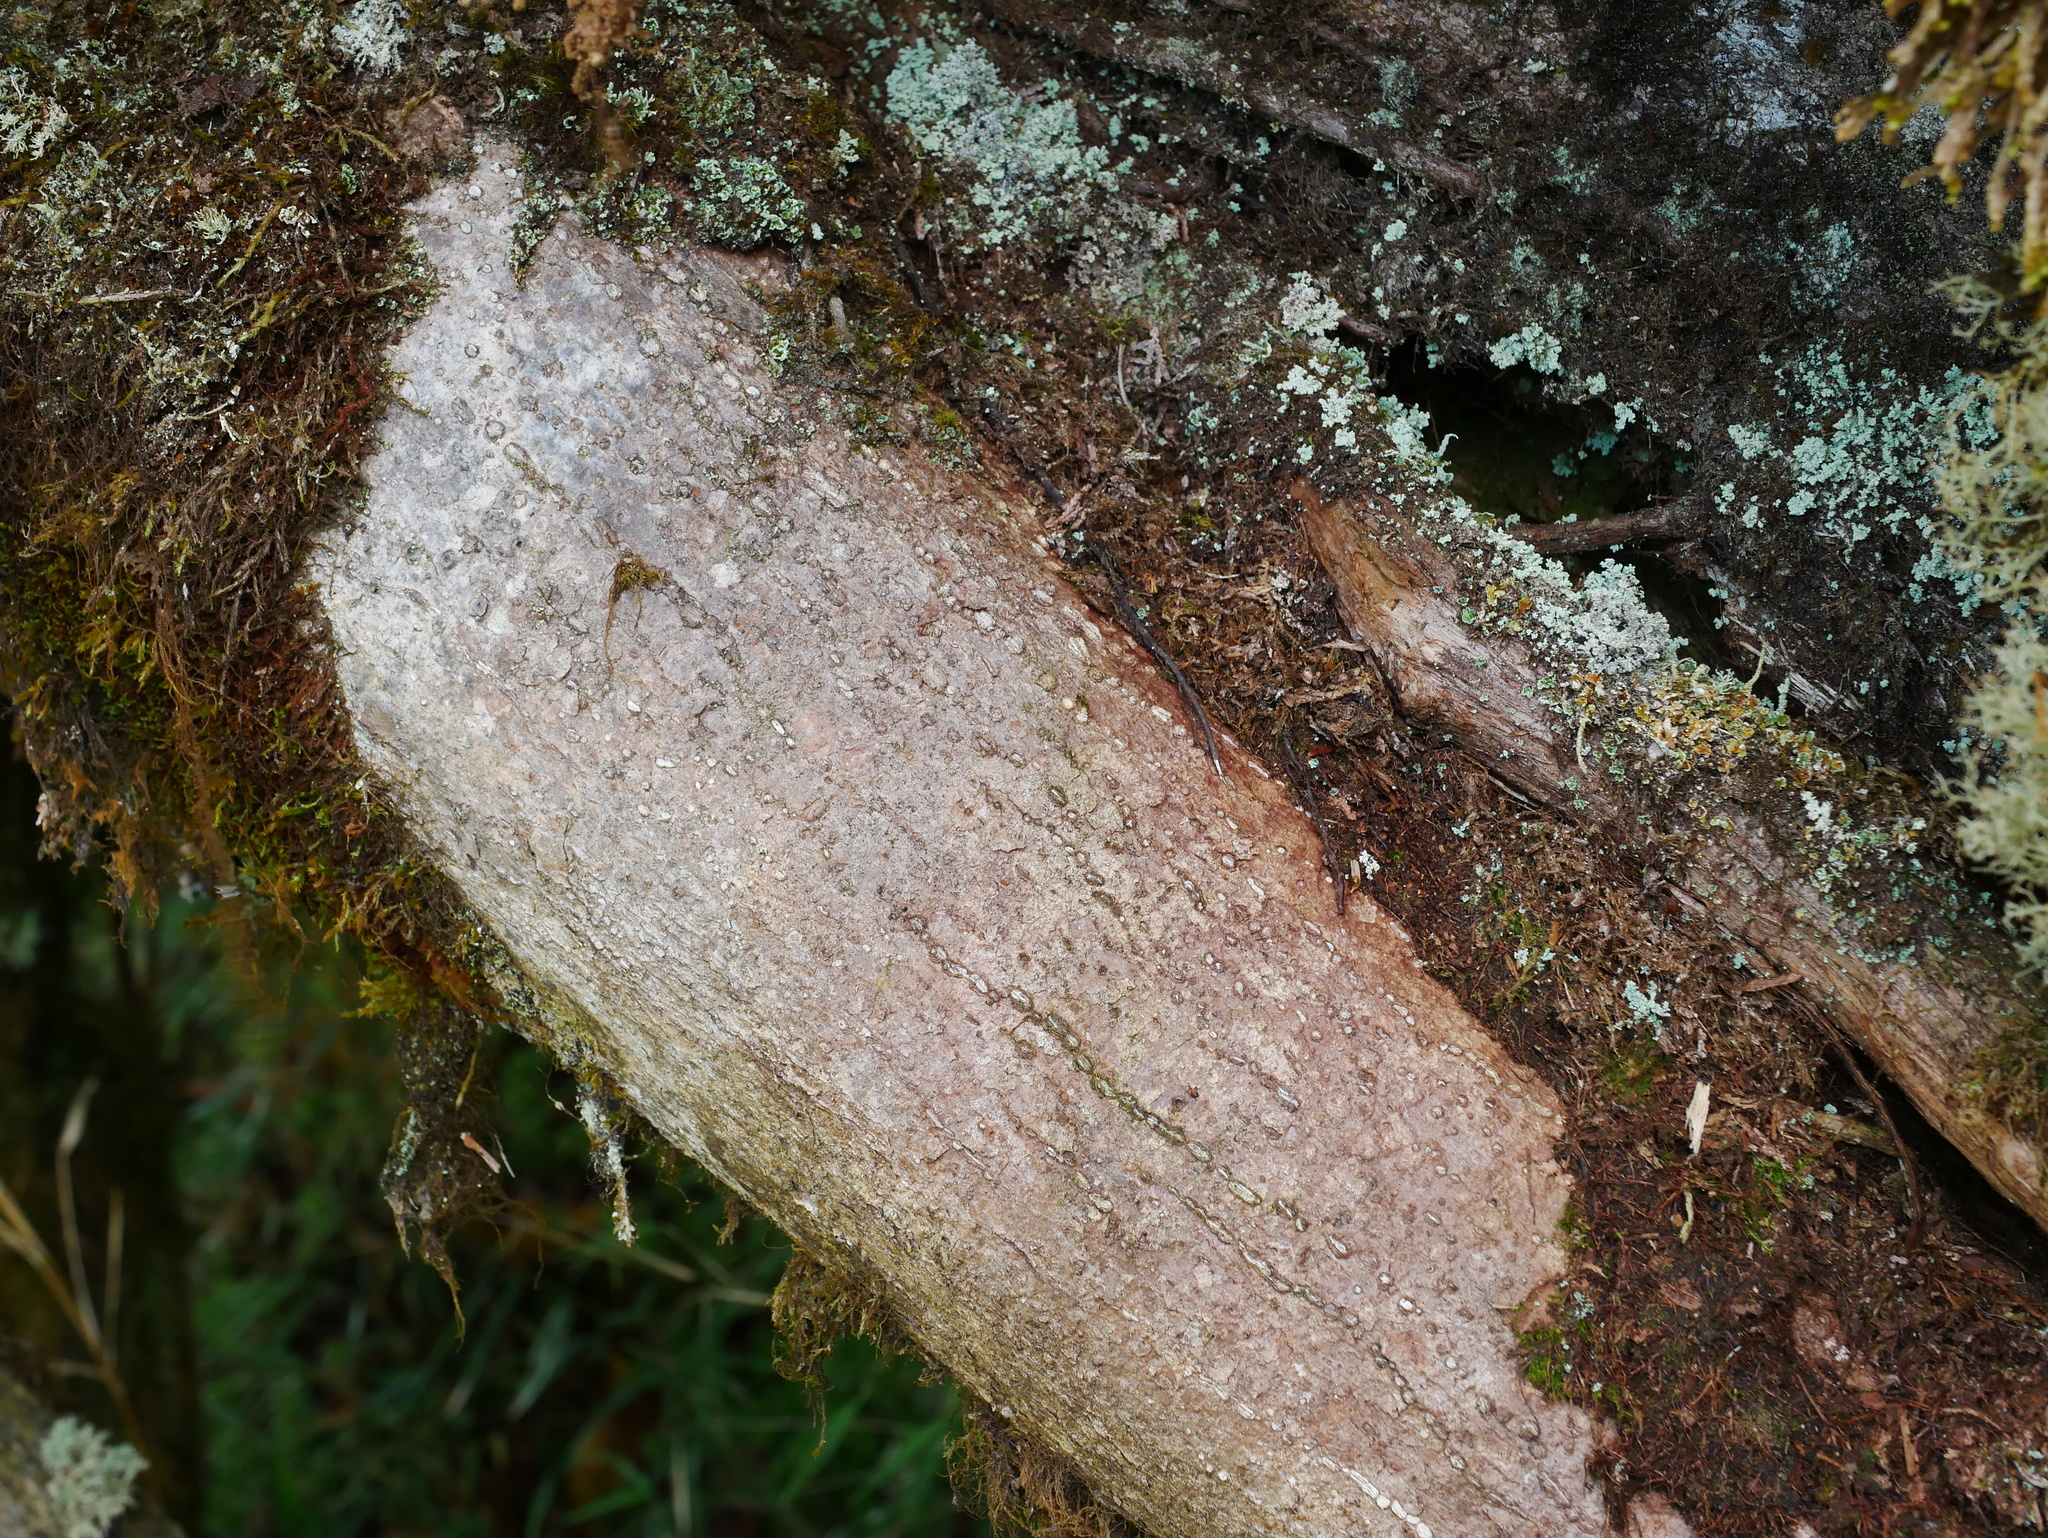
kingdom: Plantae
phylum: Tracheophyta
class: Magnoliopsida
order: Trochodendrales
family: Trochodendraceae
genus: Trochodendron
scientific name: Trochodendron aralioides
